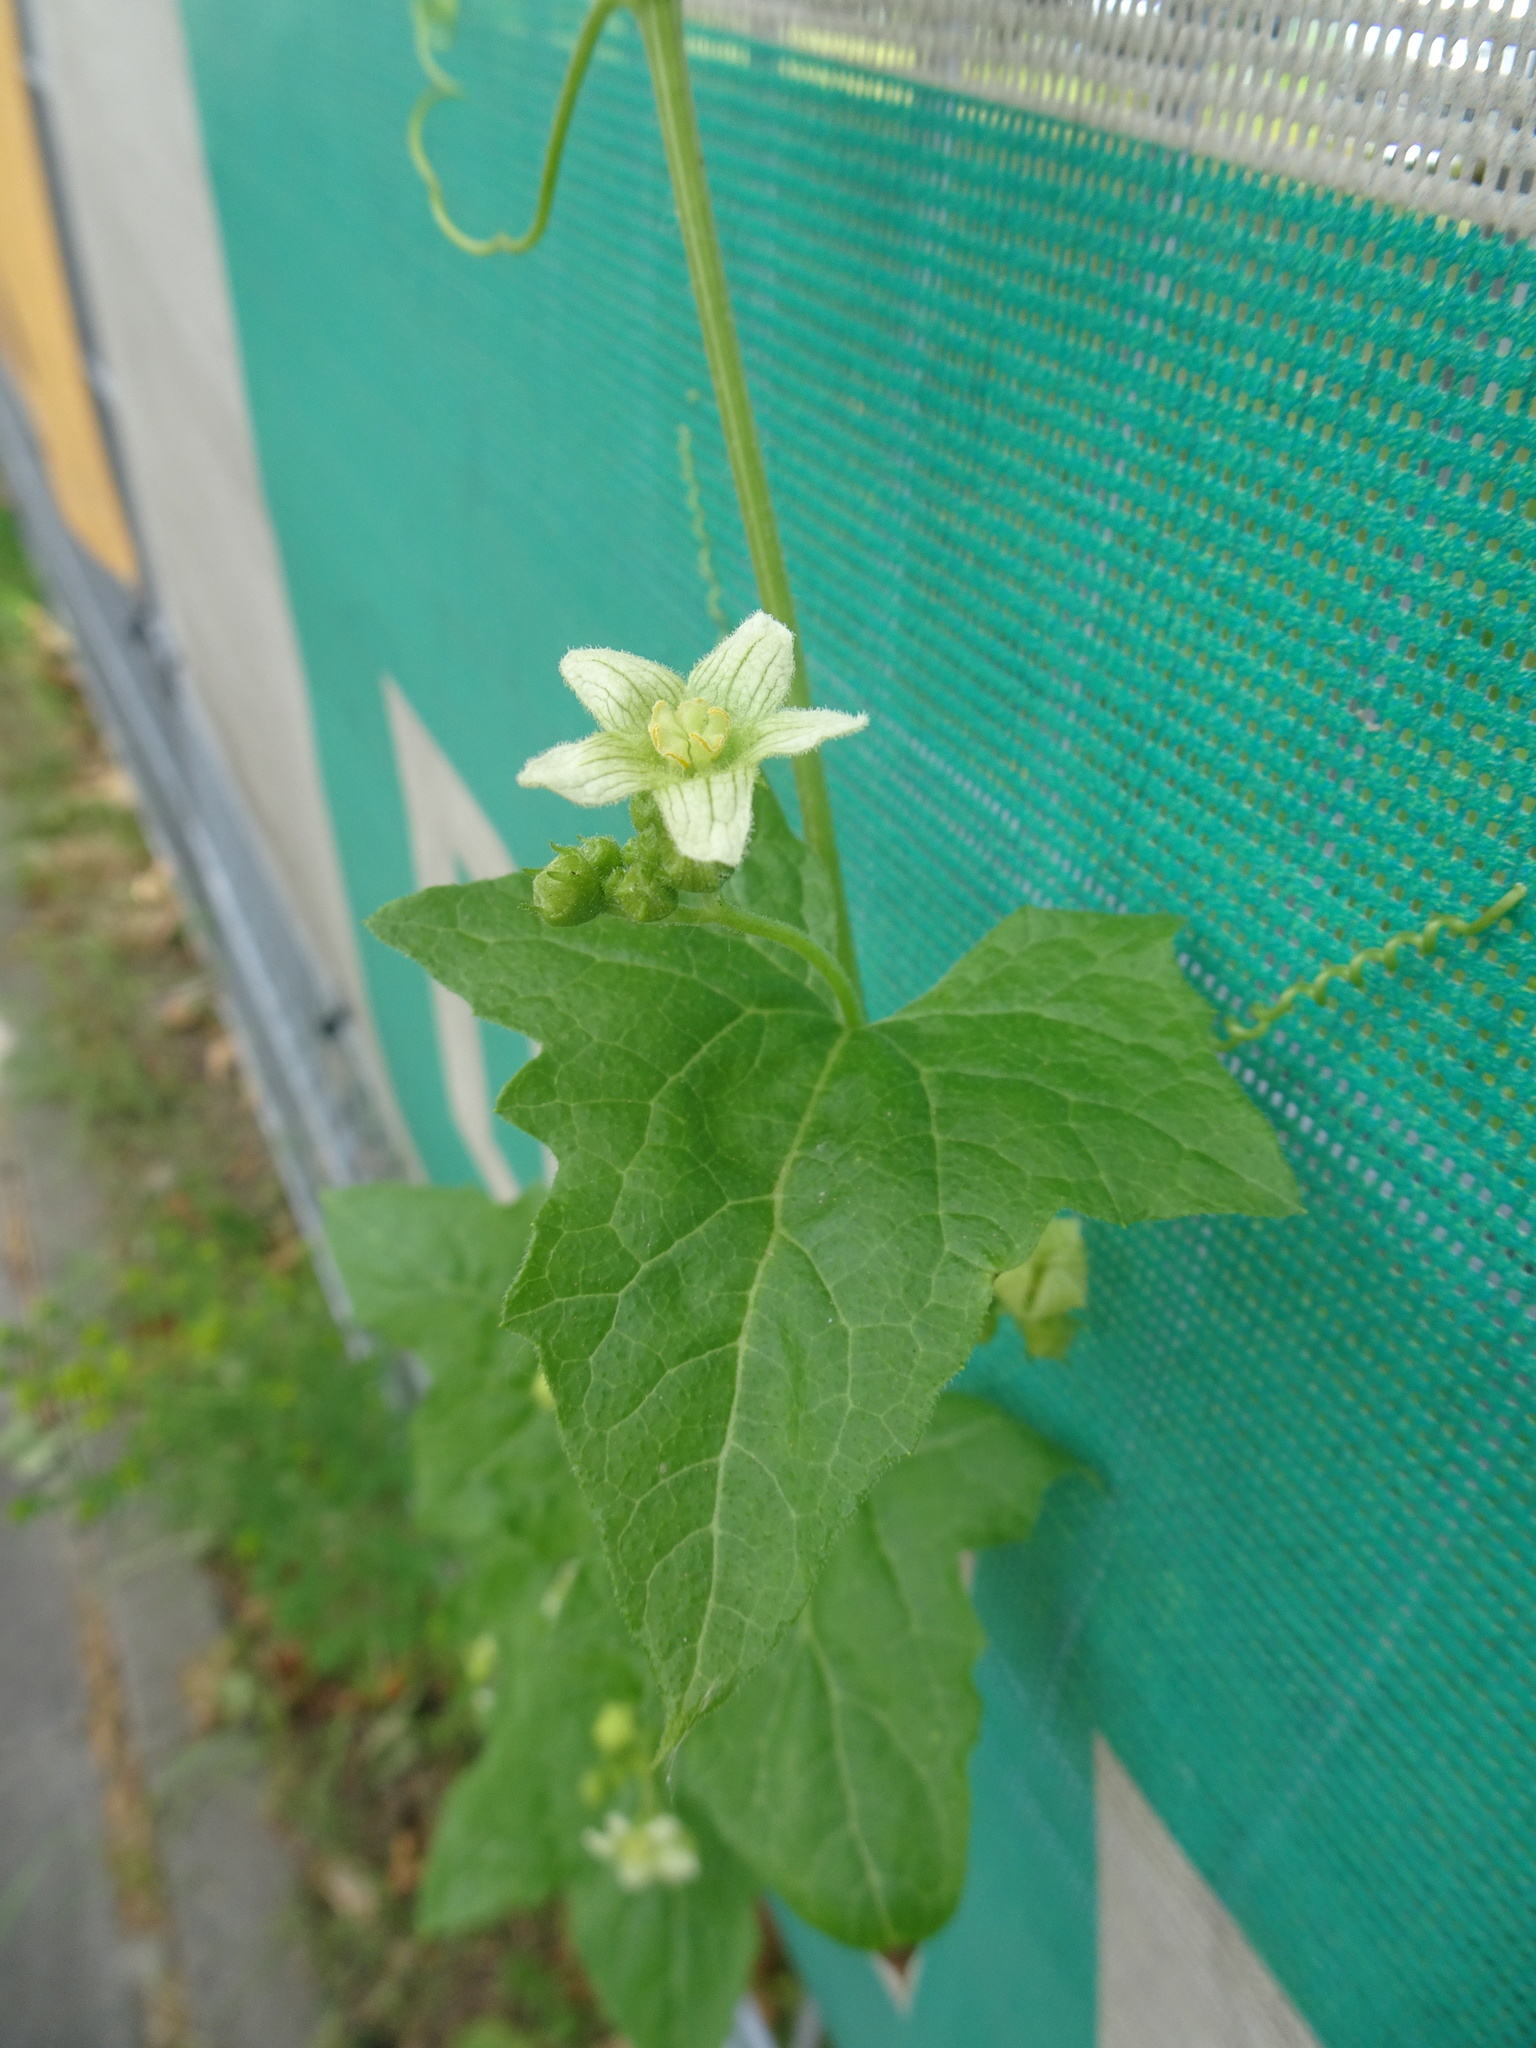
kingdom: Plantae
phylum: Tracheophyta
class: Magnoliopsida
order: Cucurbitales
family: Cucurbitaceae
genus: Bryonia
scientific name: Bryonia dioica
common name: White bryony
